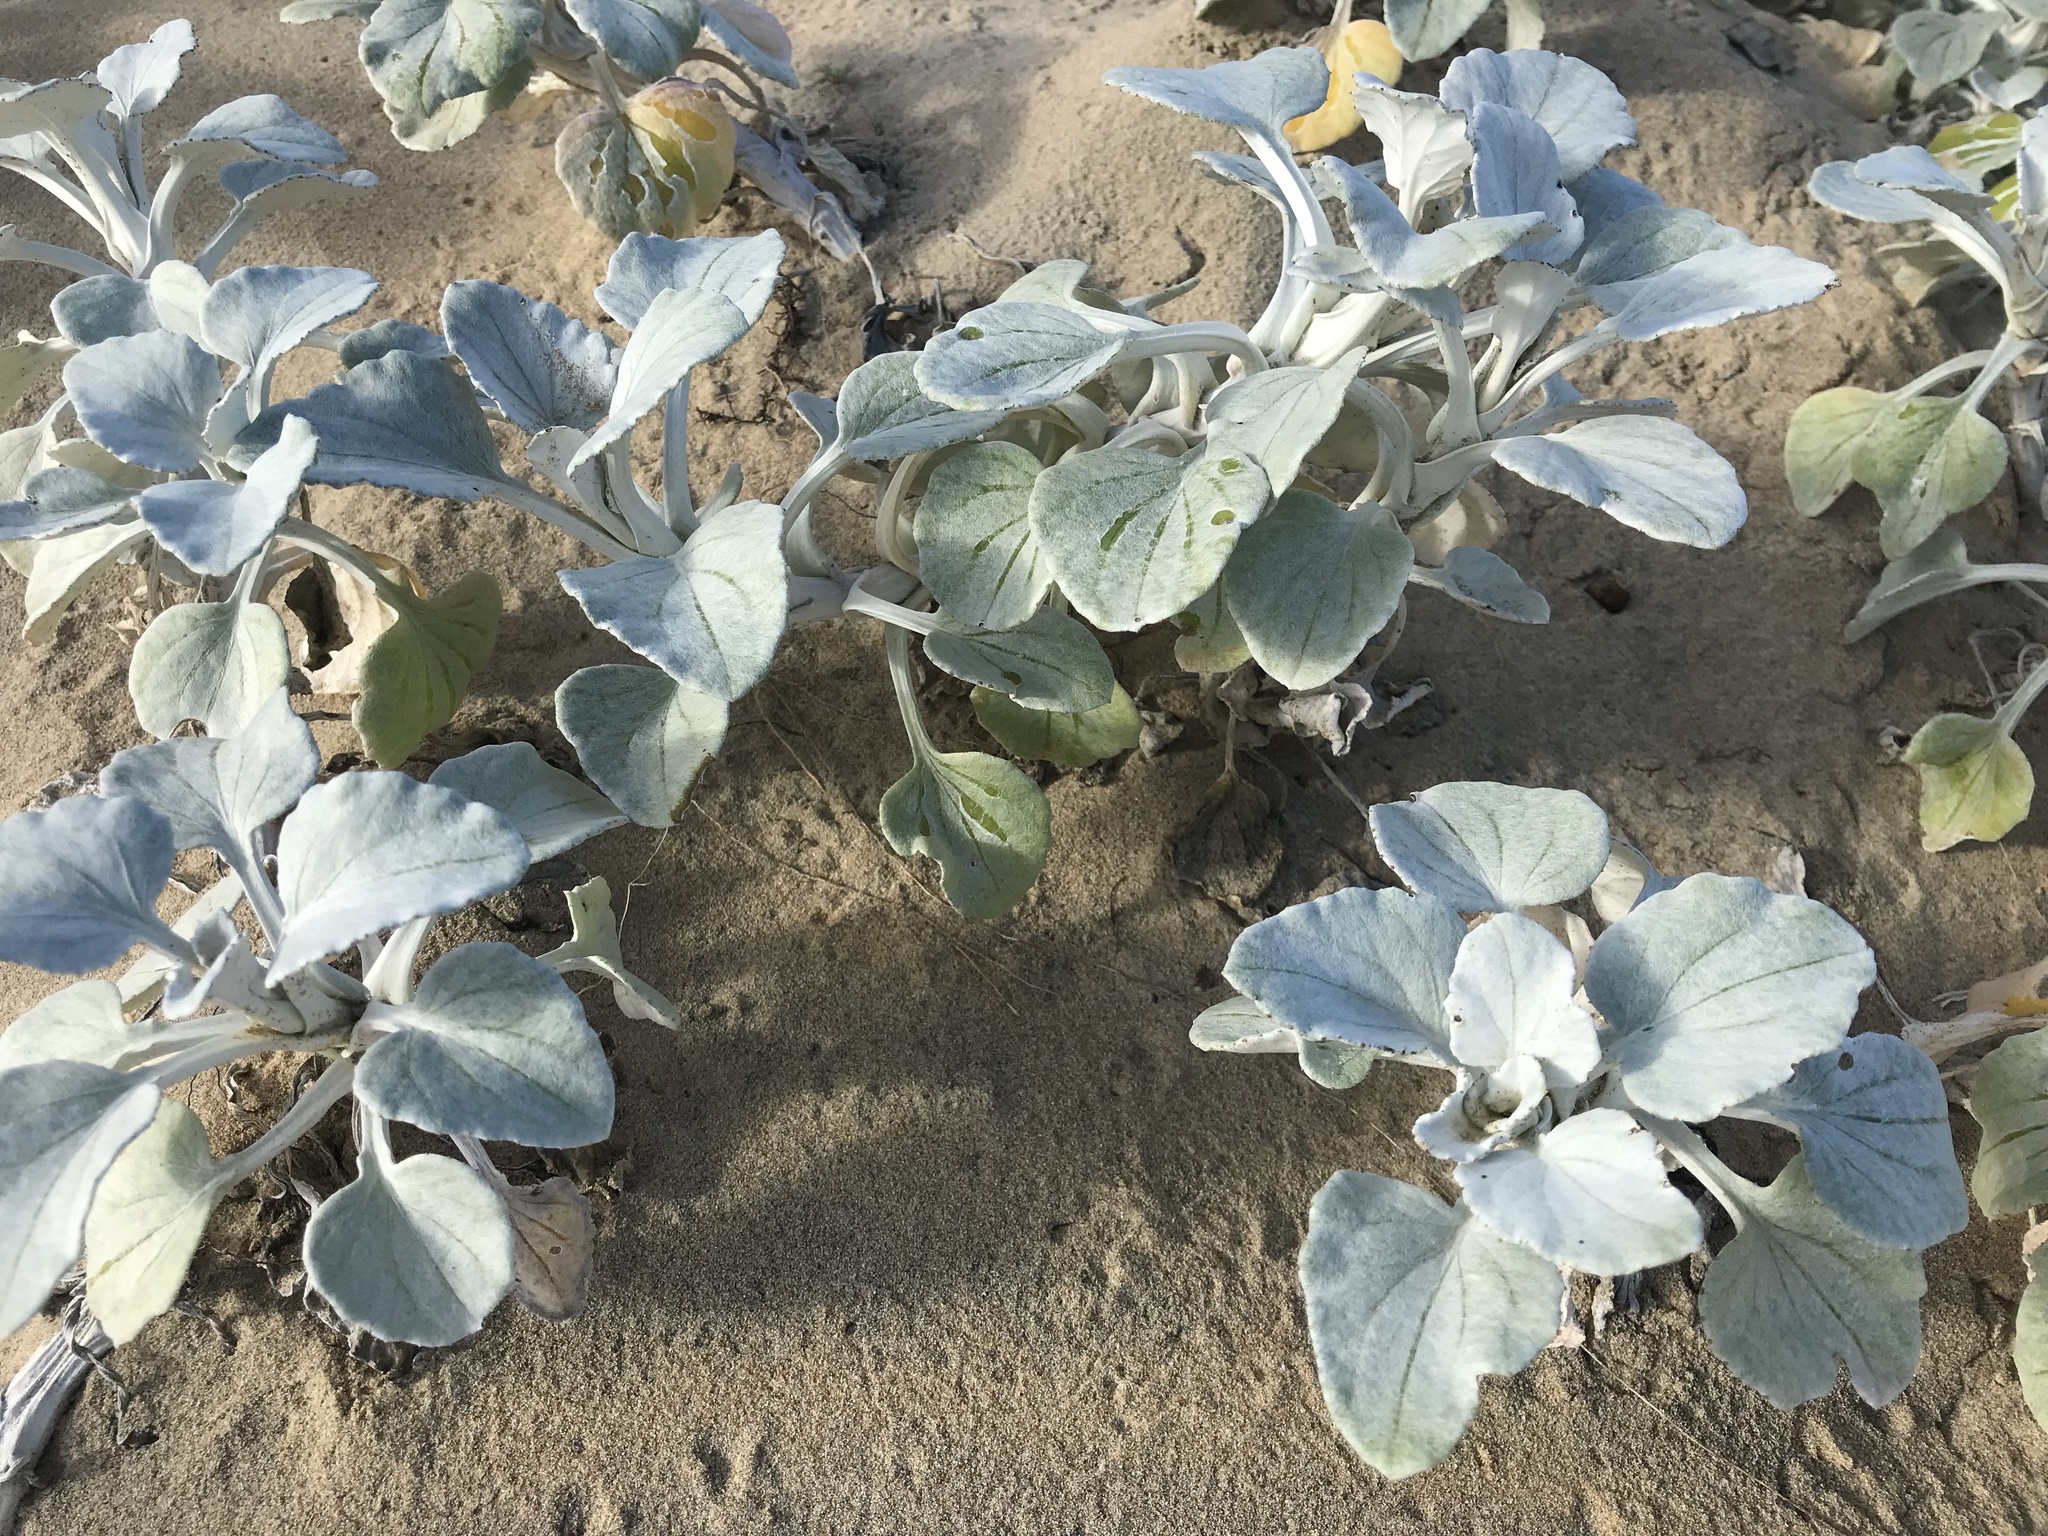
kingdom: Plantae
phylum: Tracheophyta
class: Magnoliopsida
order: Asterales
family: Asteraceae
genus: Arctotheca
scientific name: Arctotheca populifolia
